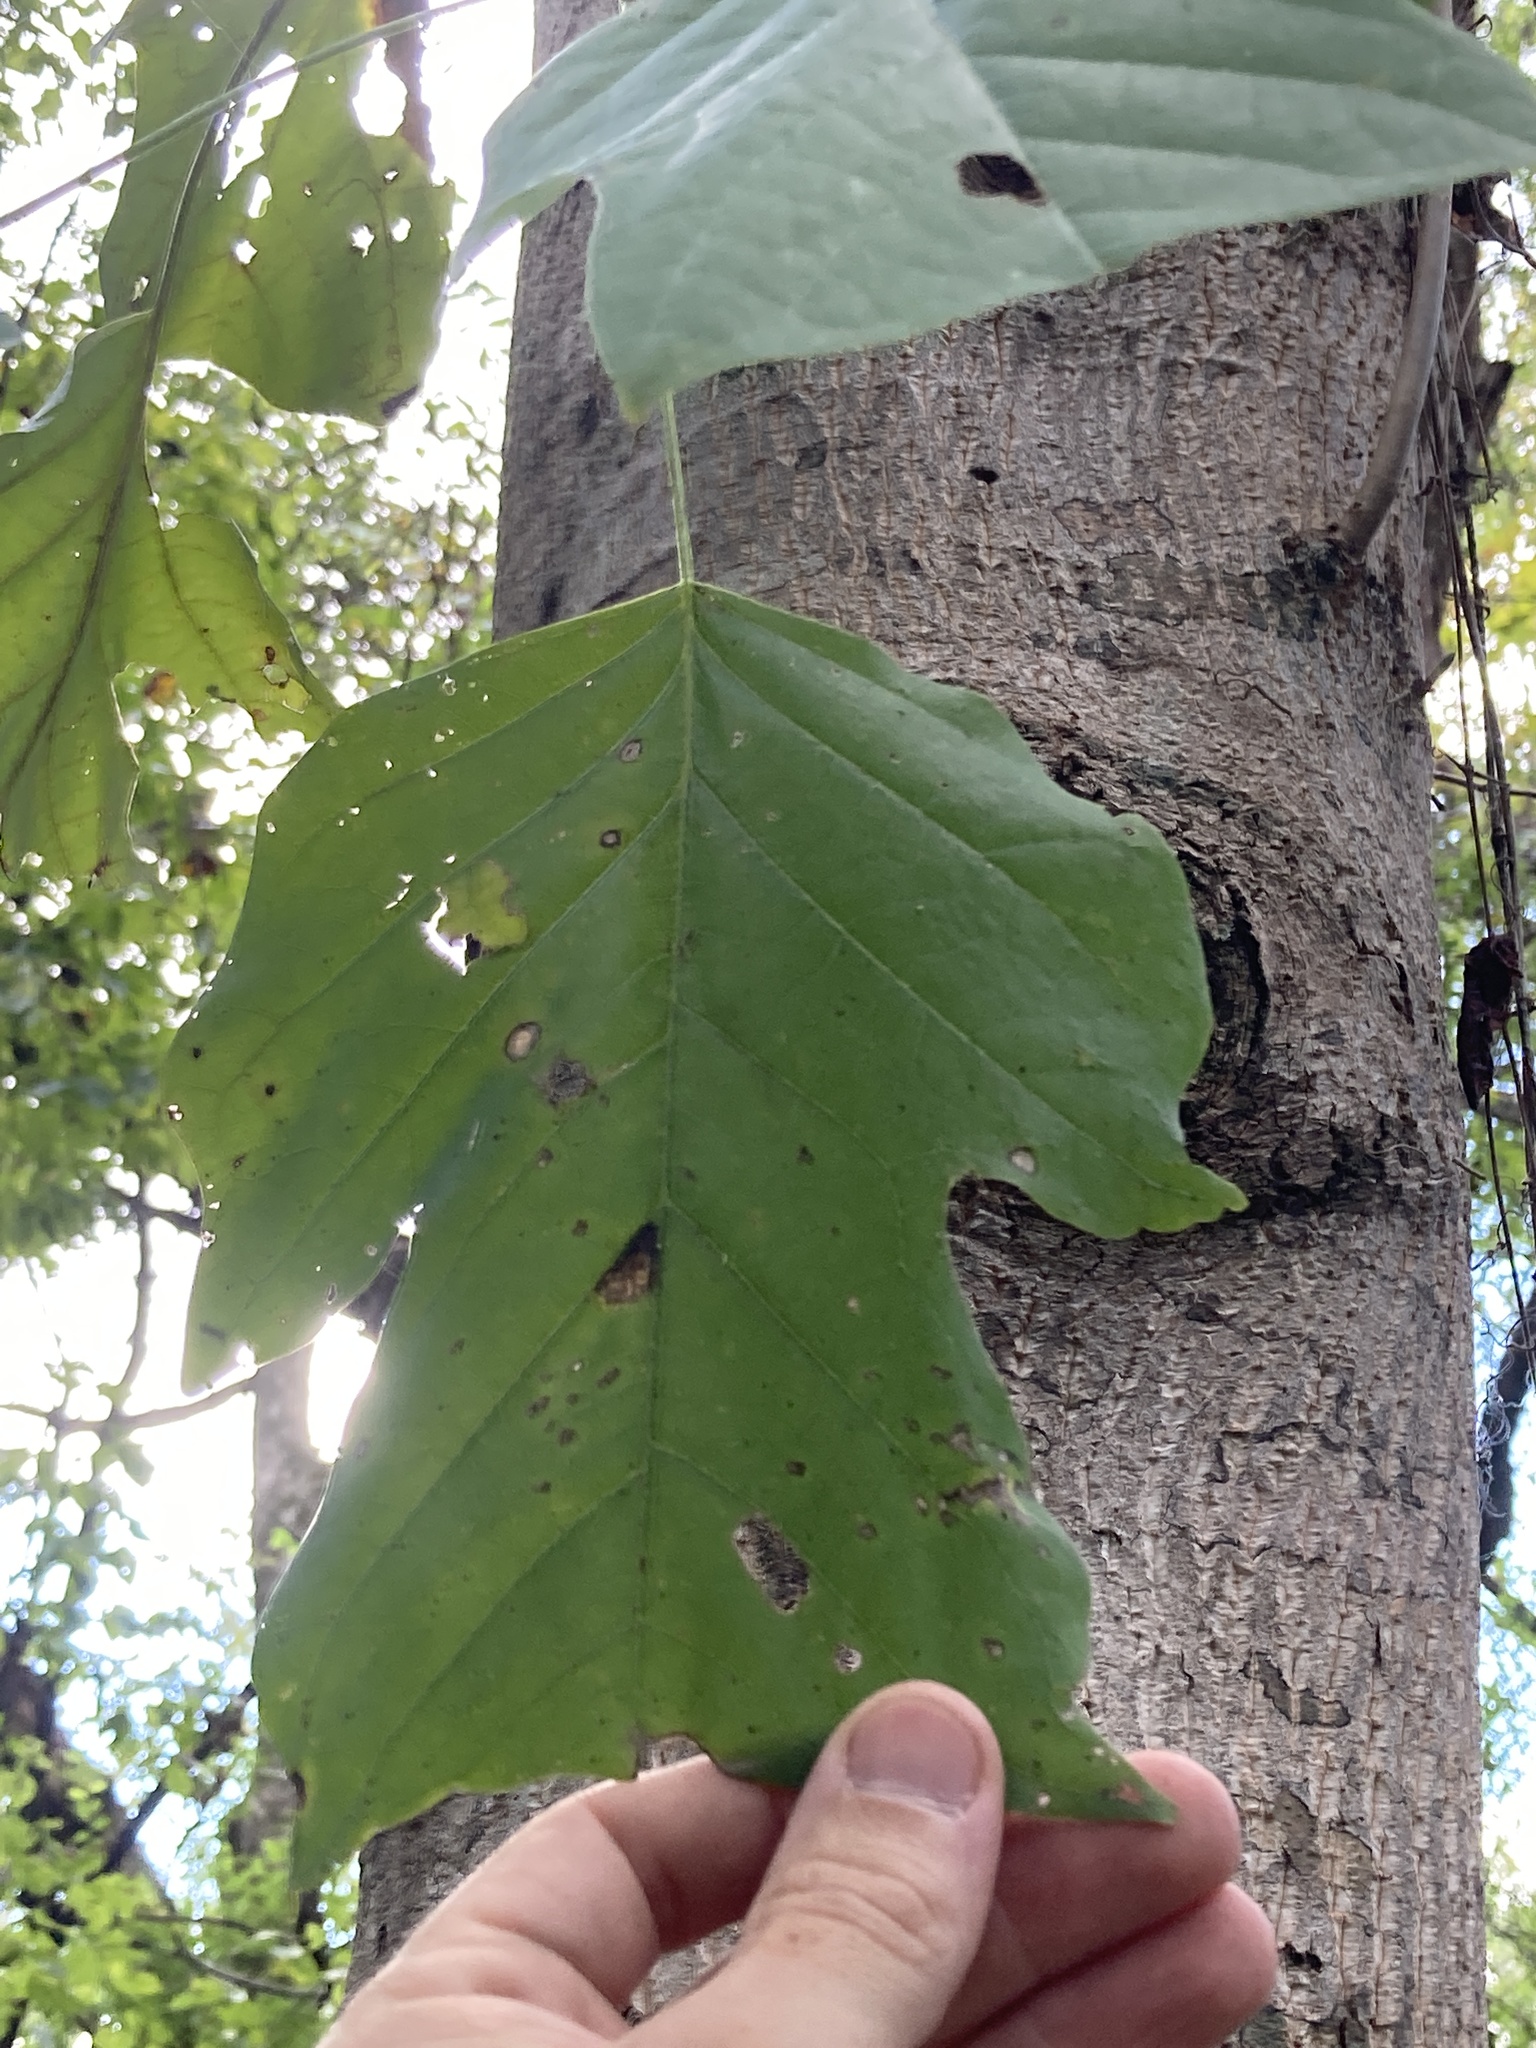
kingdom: Plantae
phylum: Tracheophyta
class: Magnoliopsida
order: Magnoliales
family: Magnoliaceae
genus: Liriodendron
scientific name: Liriodendron tulipifera
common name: Tulip tree
